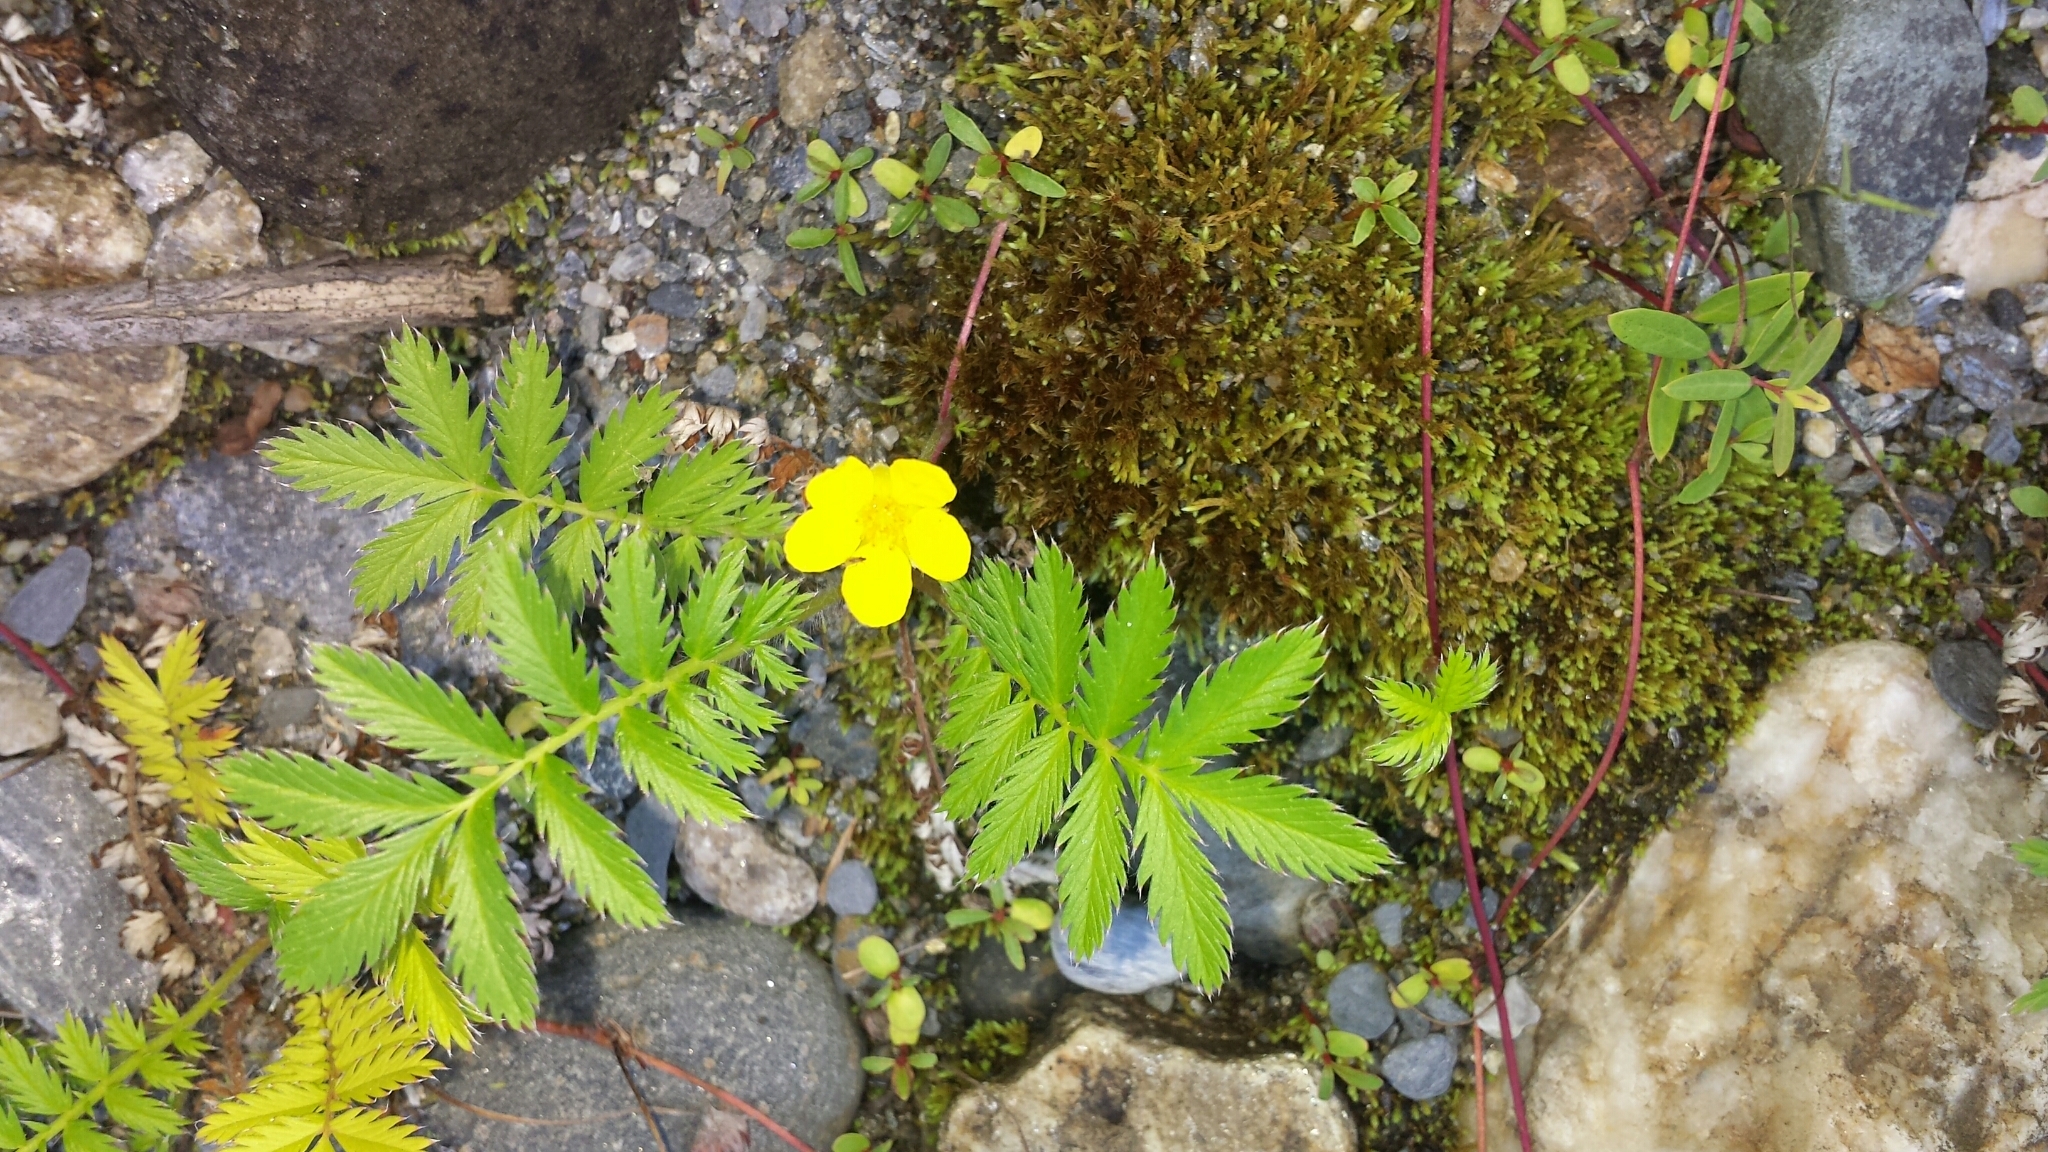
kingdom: Plantae
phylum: Tracheophyta
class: Magnoliopsida
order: Rosales
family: Rosaceae
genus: Argentina
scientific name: Argentina anserina
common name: Common silverweed
